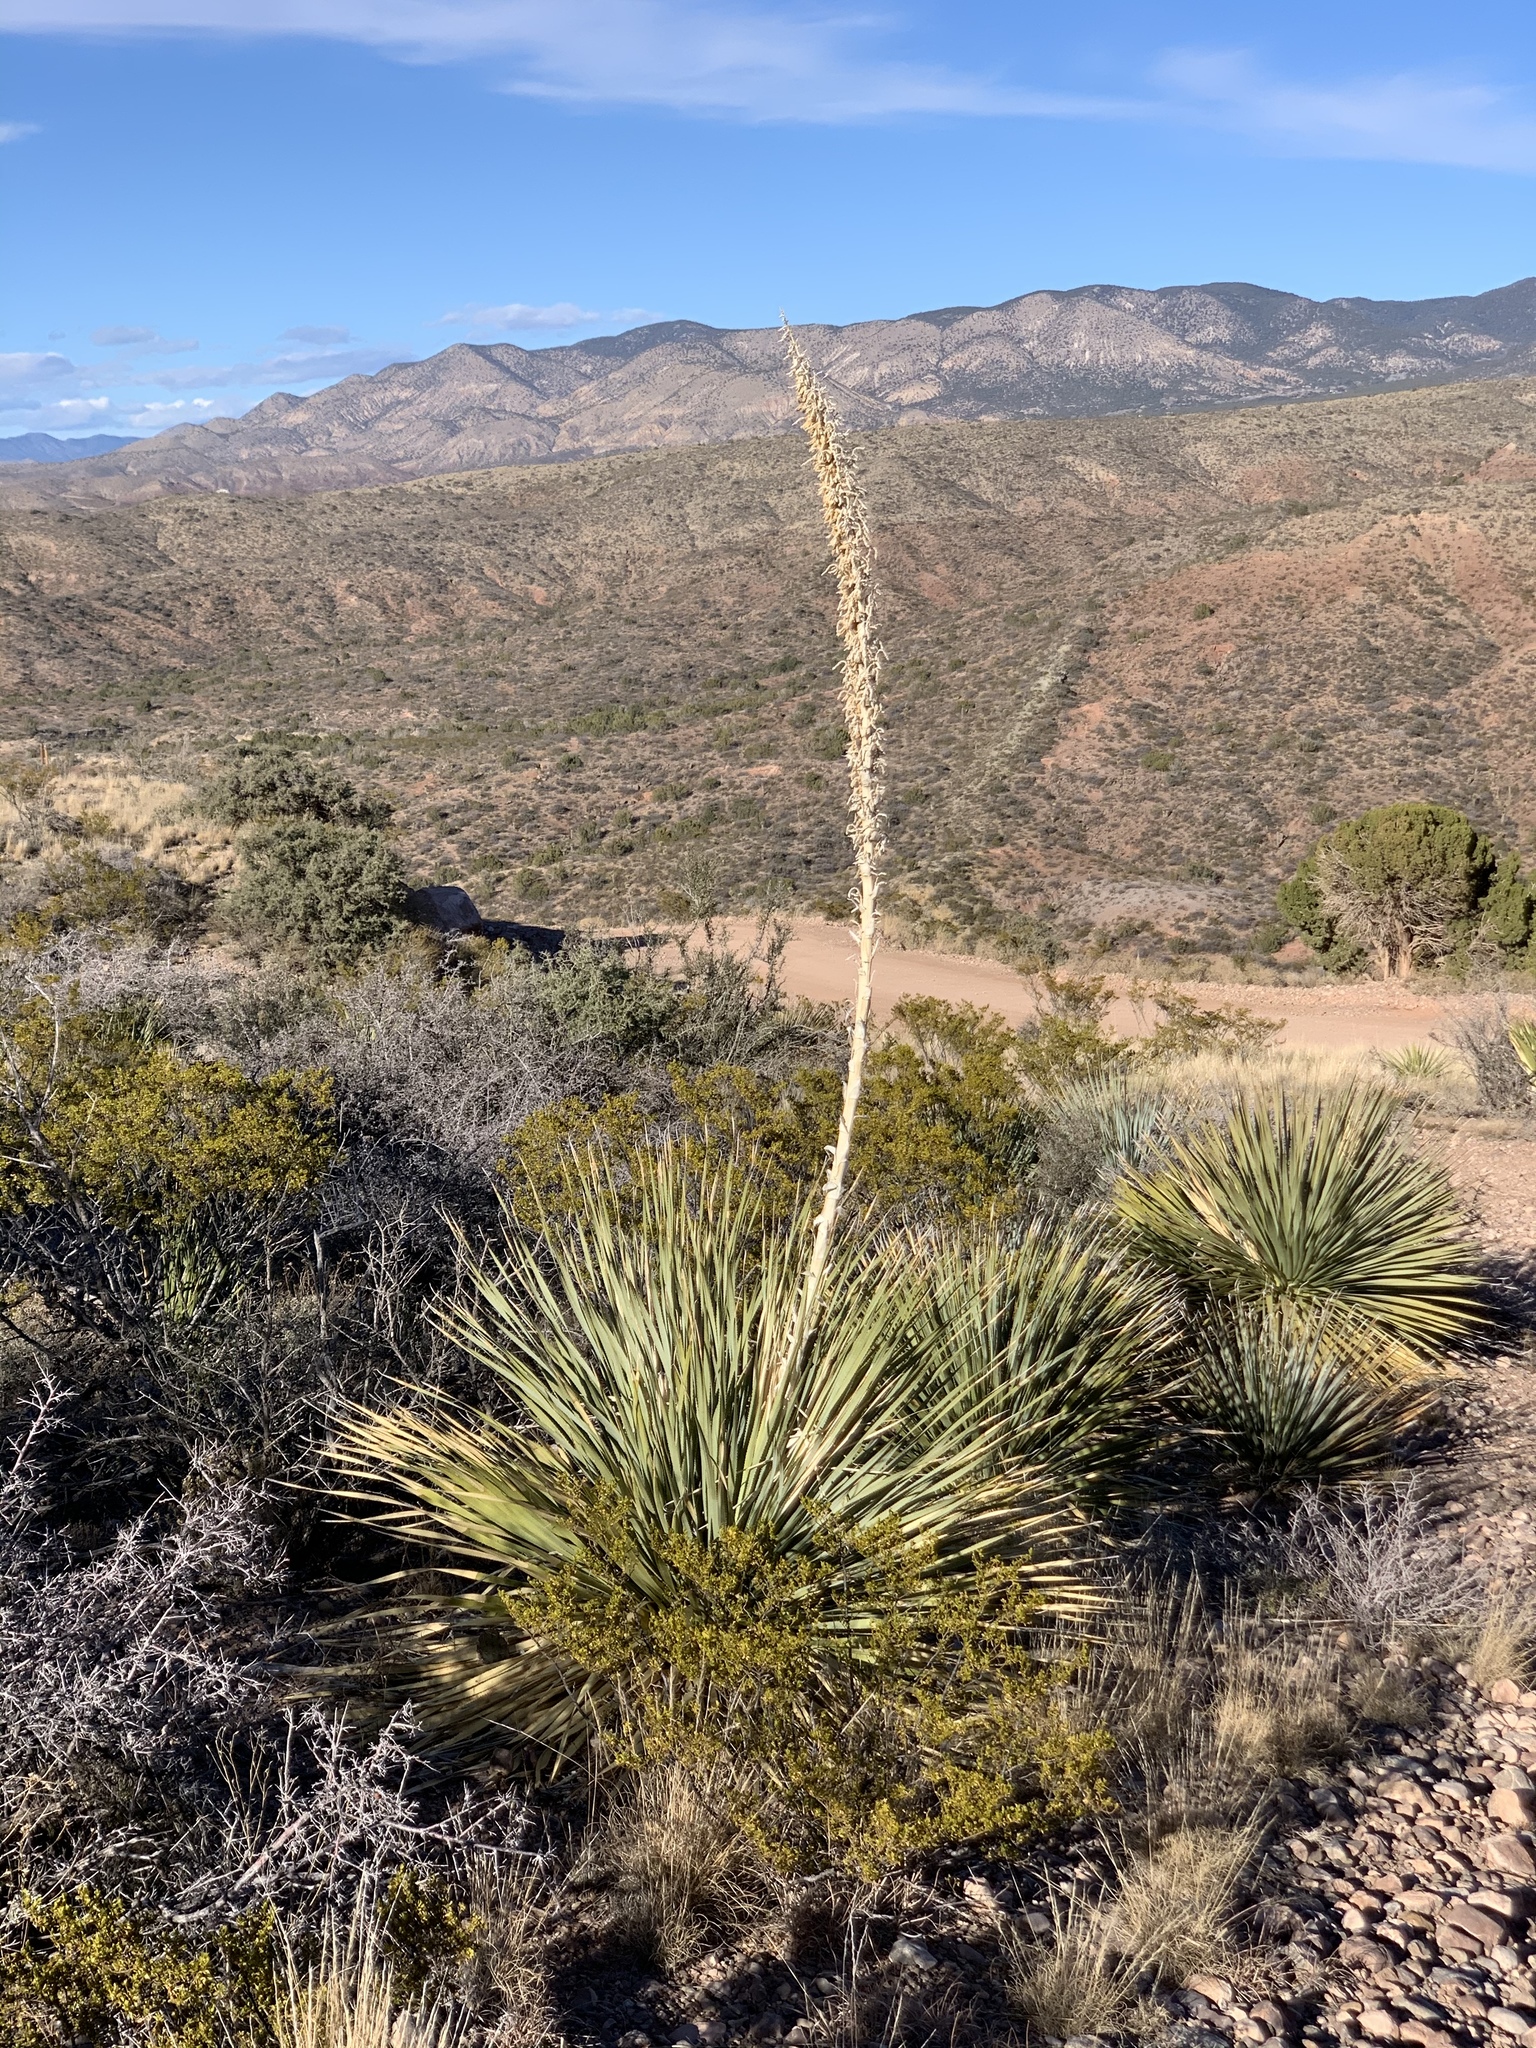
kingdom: Plantae
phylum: Tracheophyta
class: Liliopsida
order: Asparagales
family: Asparagaceae
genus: Dasylirion
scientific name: Dasylirion wheeleri
